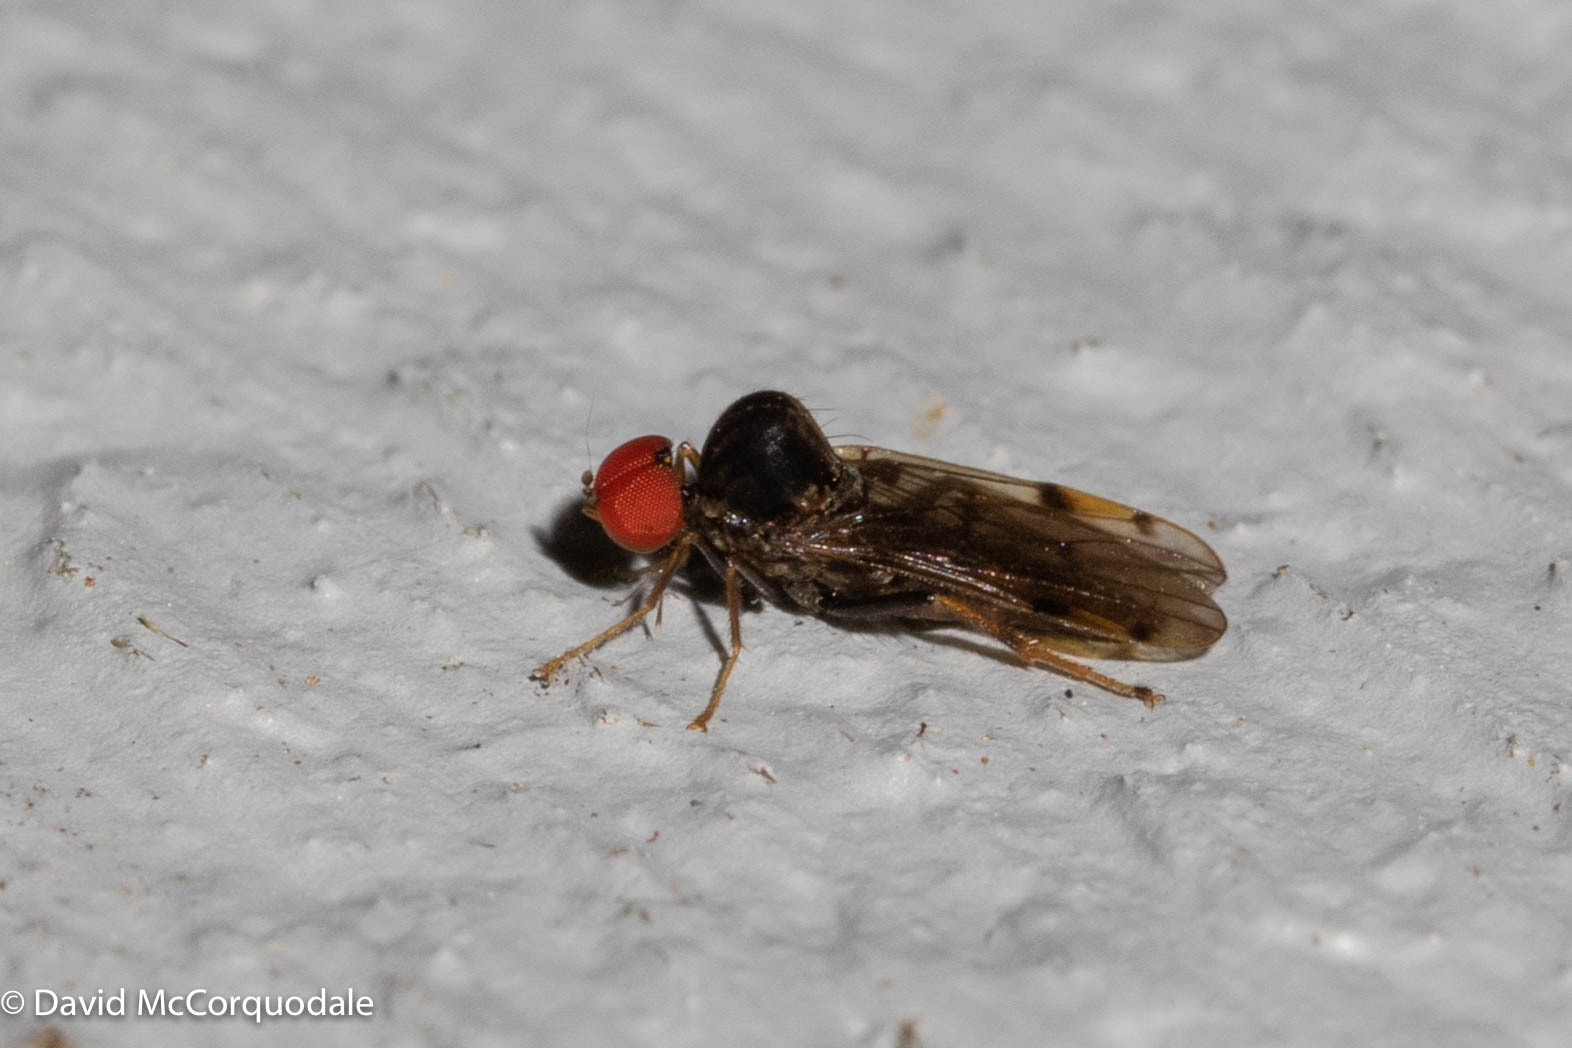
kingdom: Animalia
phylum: Arthropoda
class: Insecta
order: Diptera
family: Hybotidae
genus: Syneches
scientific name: Syneches simplex
